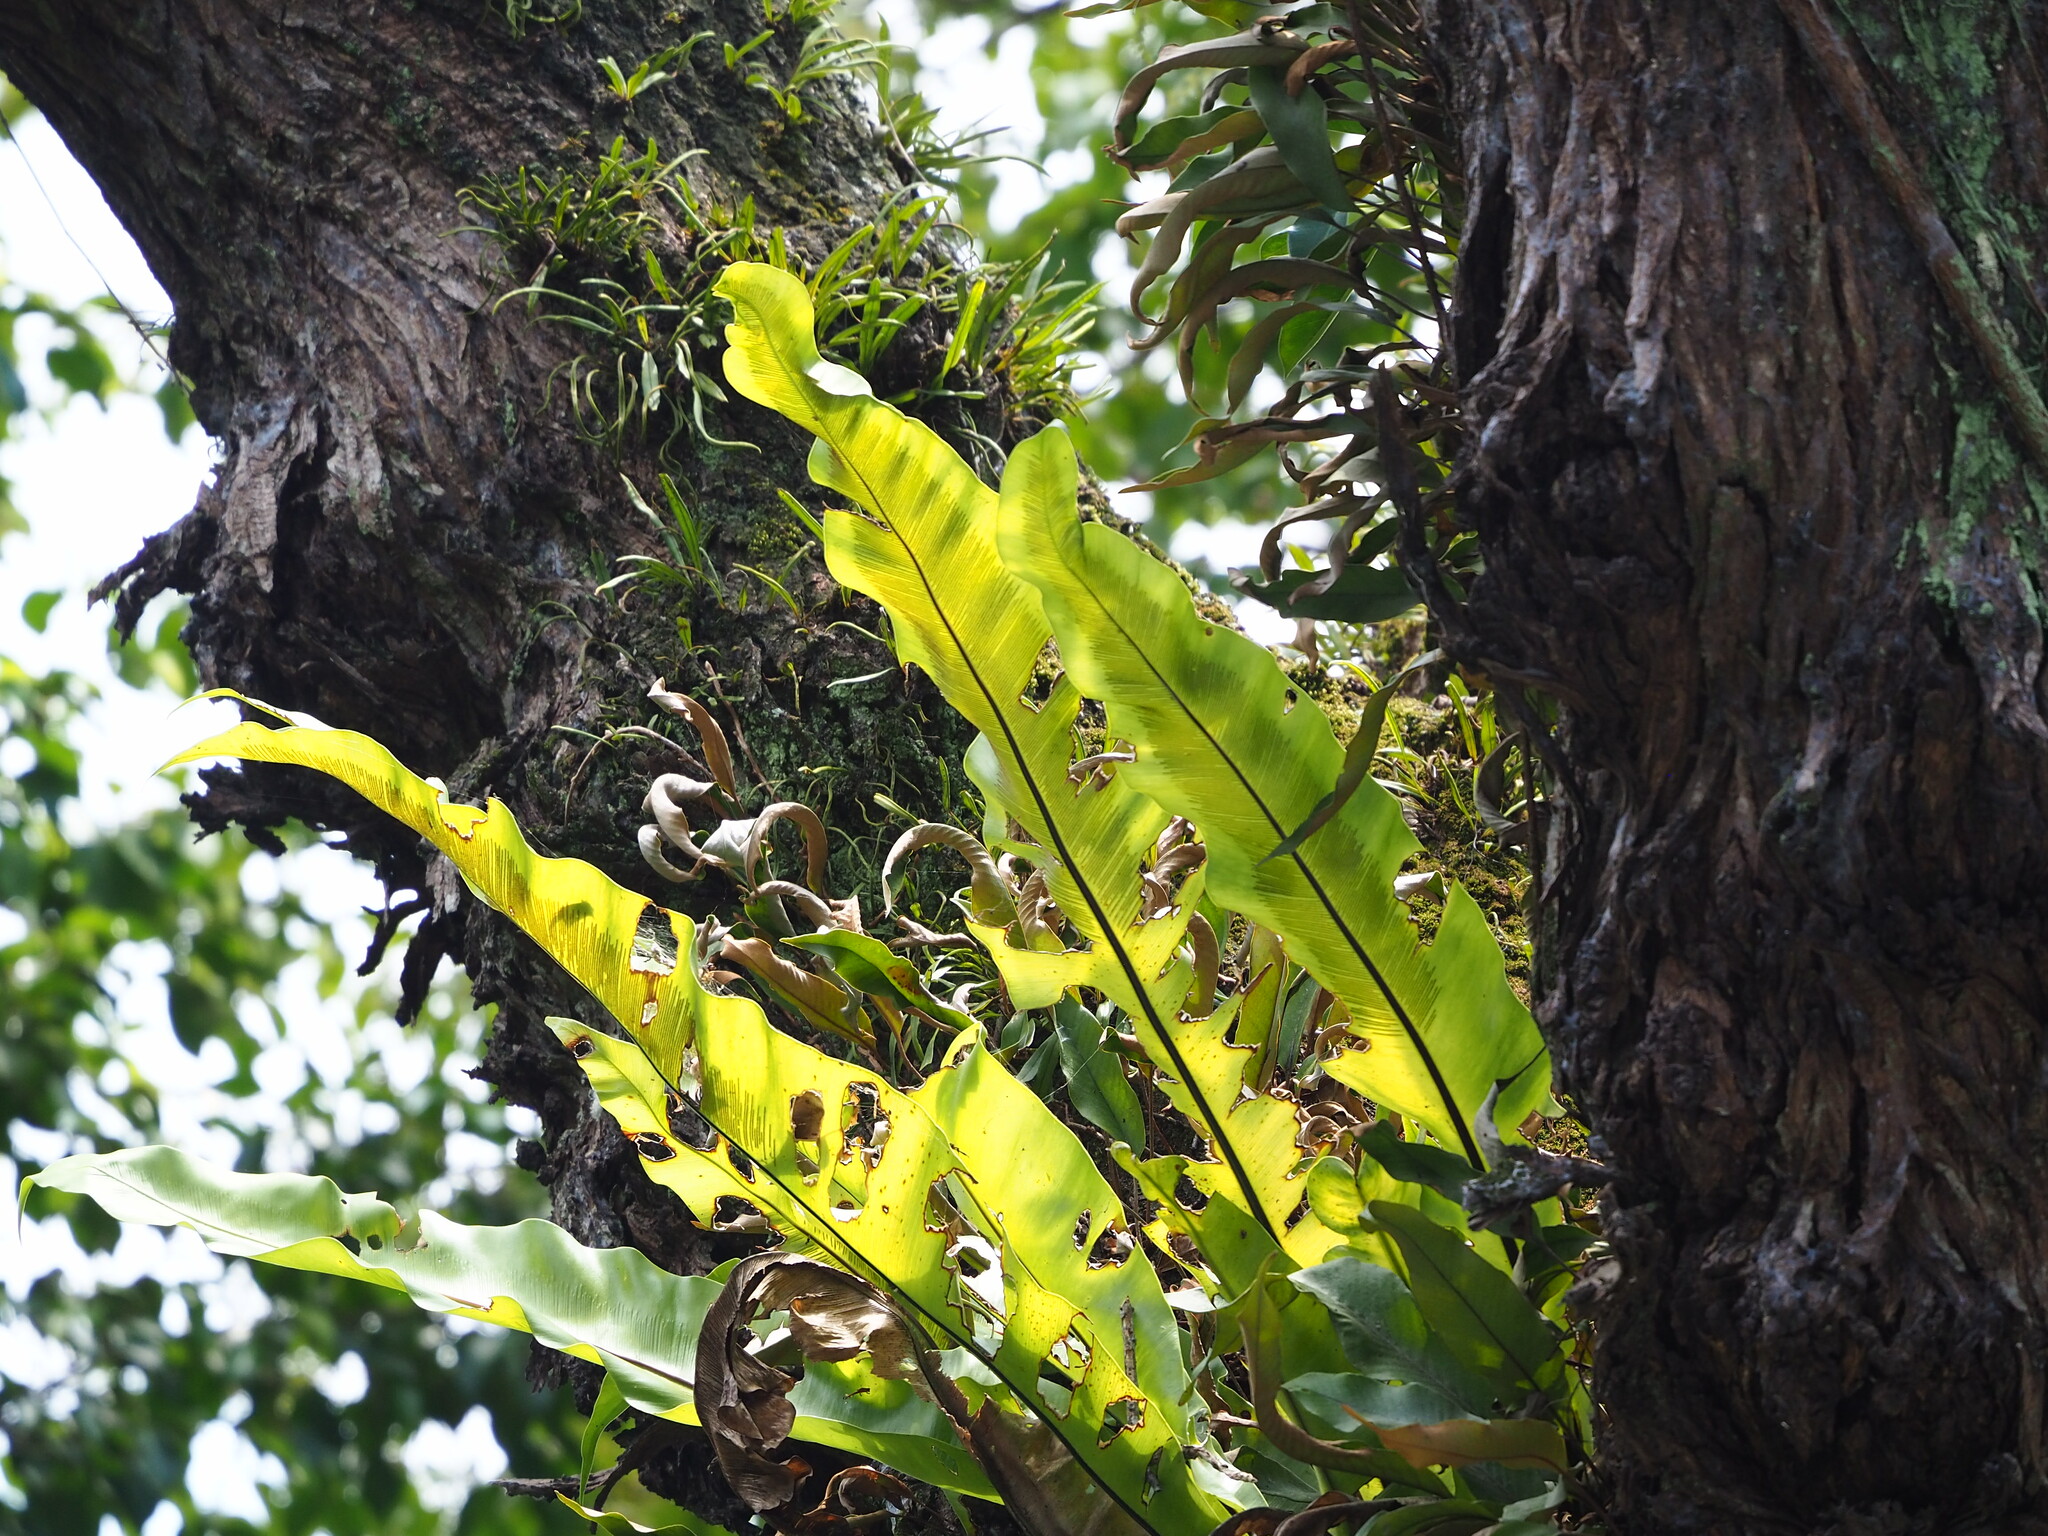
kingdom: Plantae
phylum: Tracheophyta
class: Polypodiopsida
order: Polypodiales
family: Aspleniaceae
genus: Asplenium
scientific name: Asplenium nidus
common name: Bird's-nest fern
